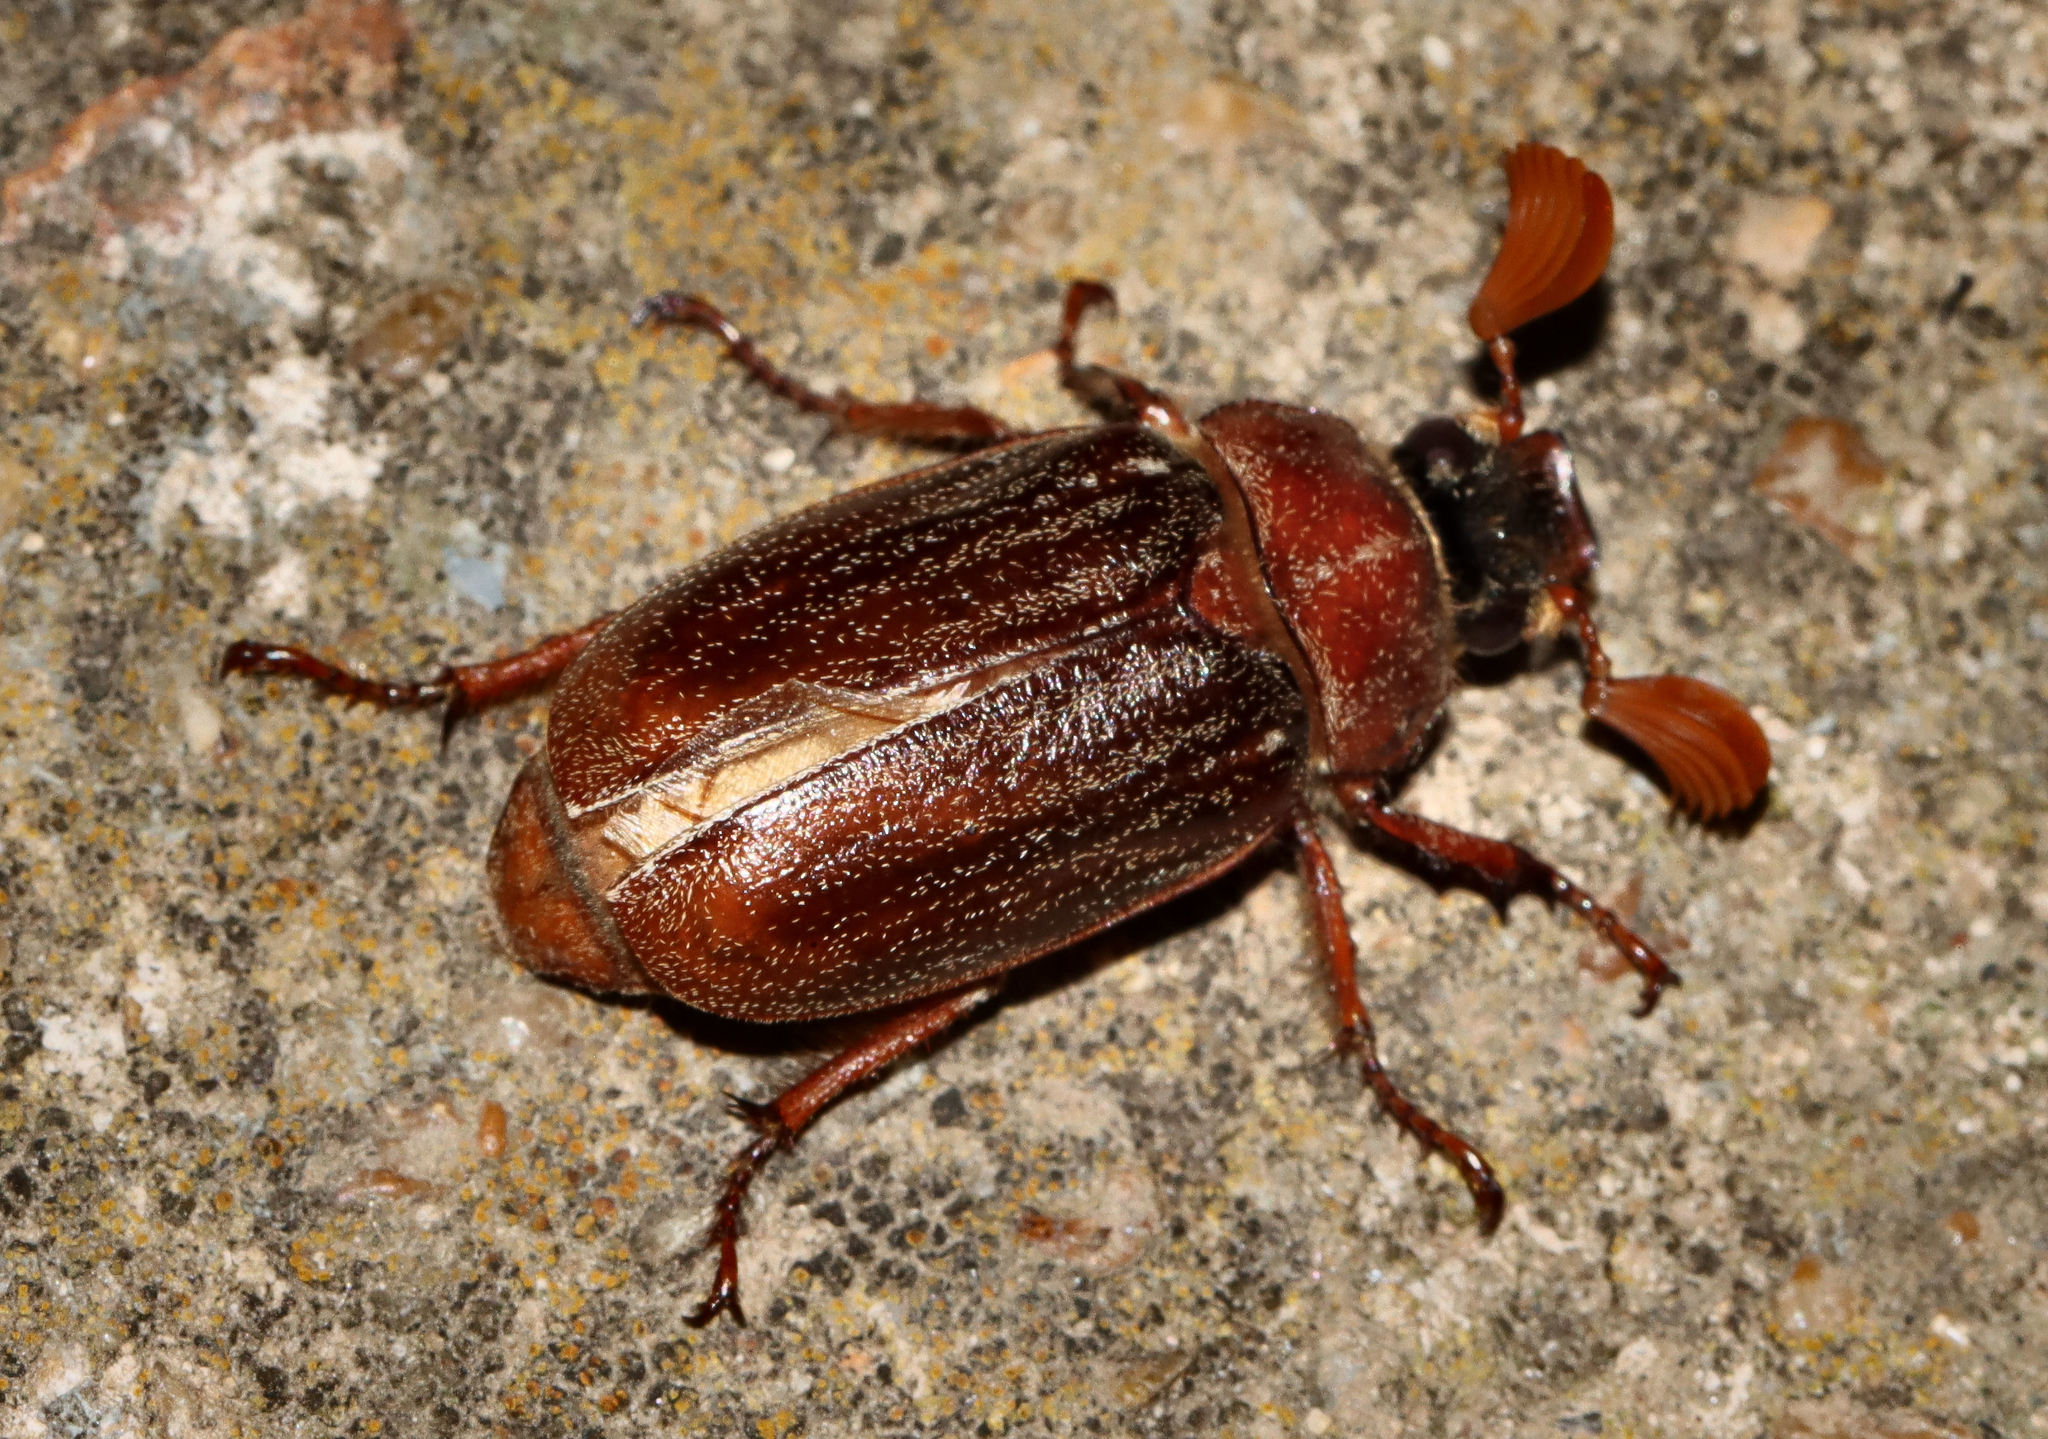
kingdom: Animalia
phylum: Arthropoda
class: Insecta
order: Coleoptera
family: Scarabaeidae
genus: Polyphylla
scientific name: Polyphylla hammondi
